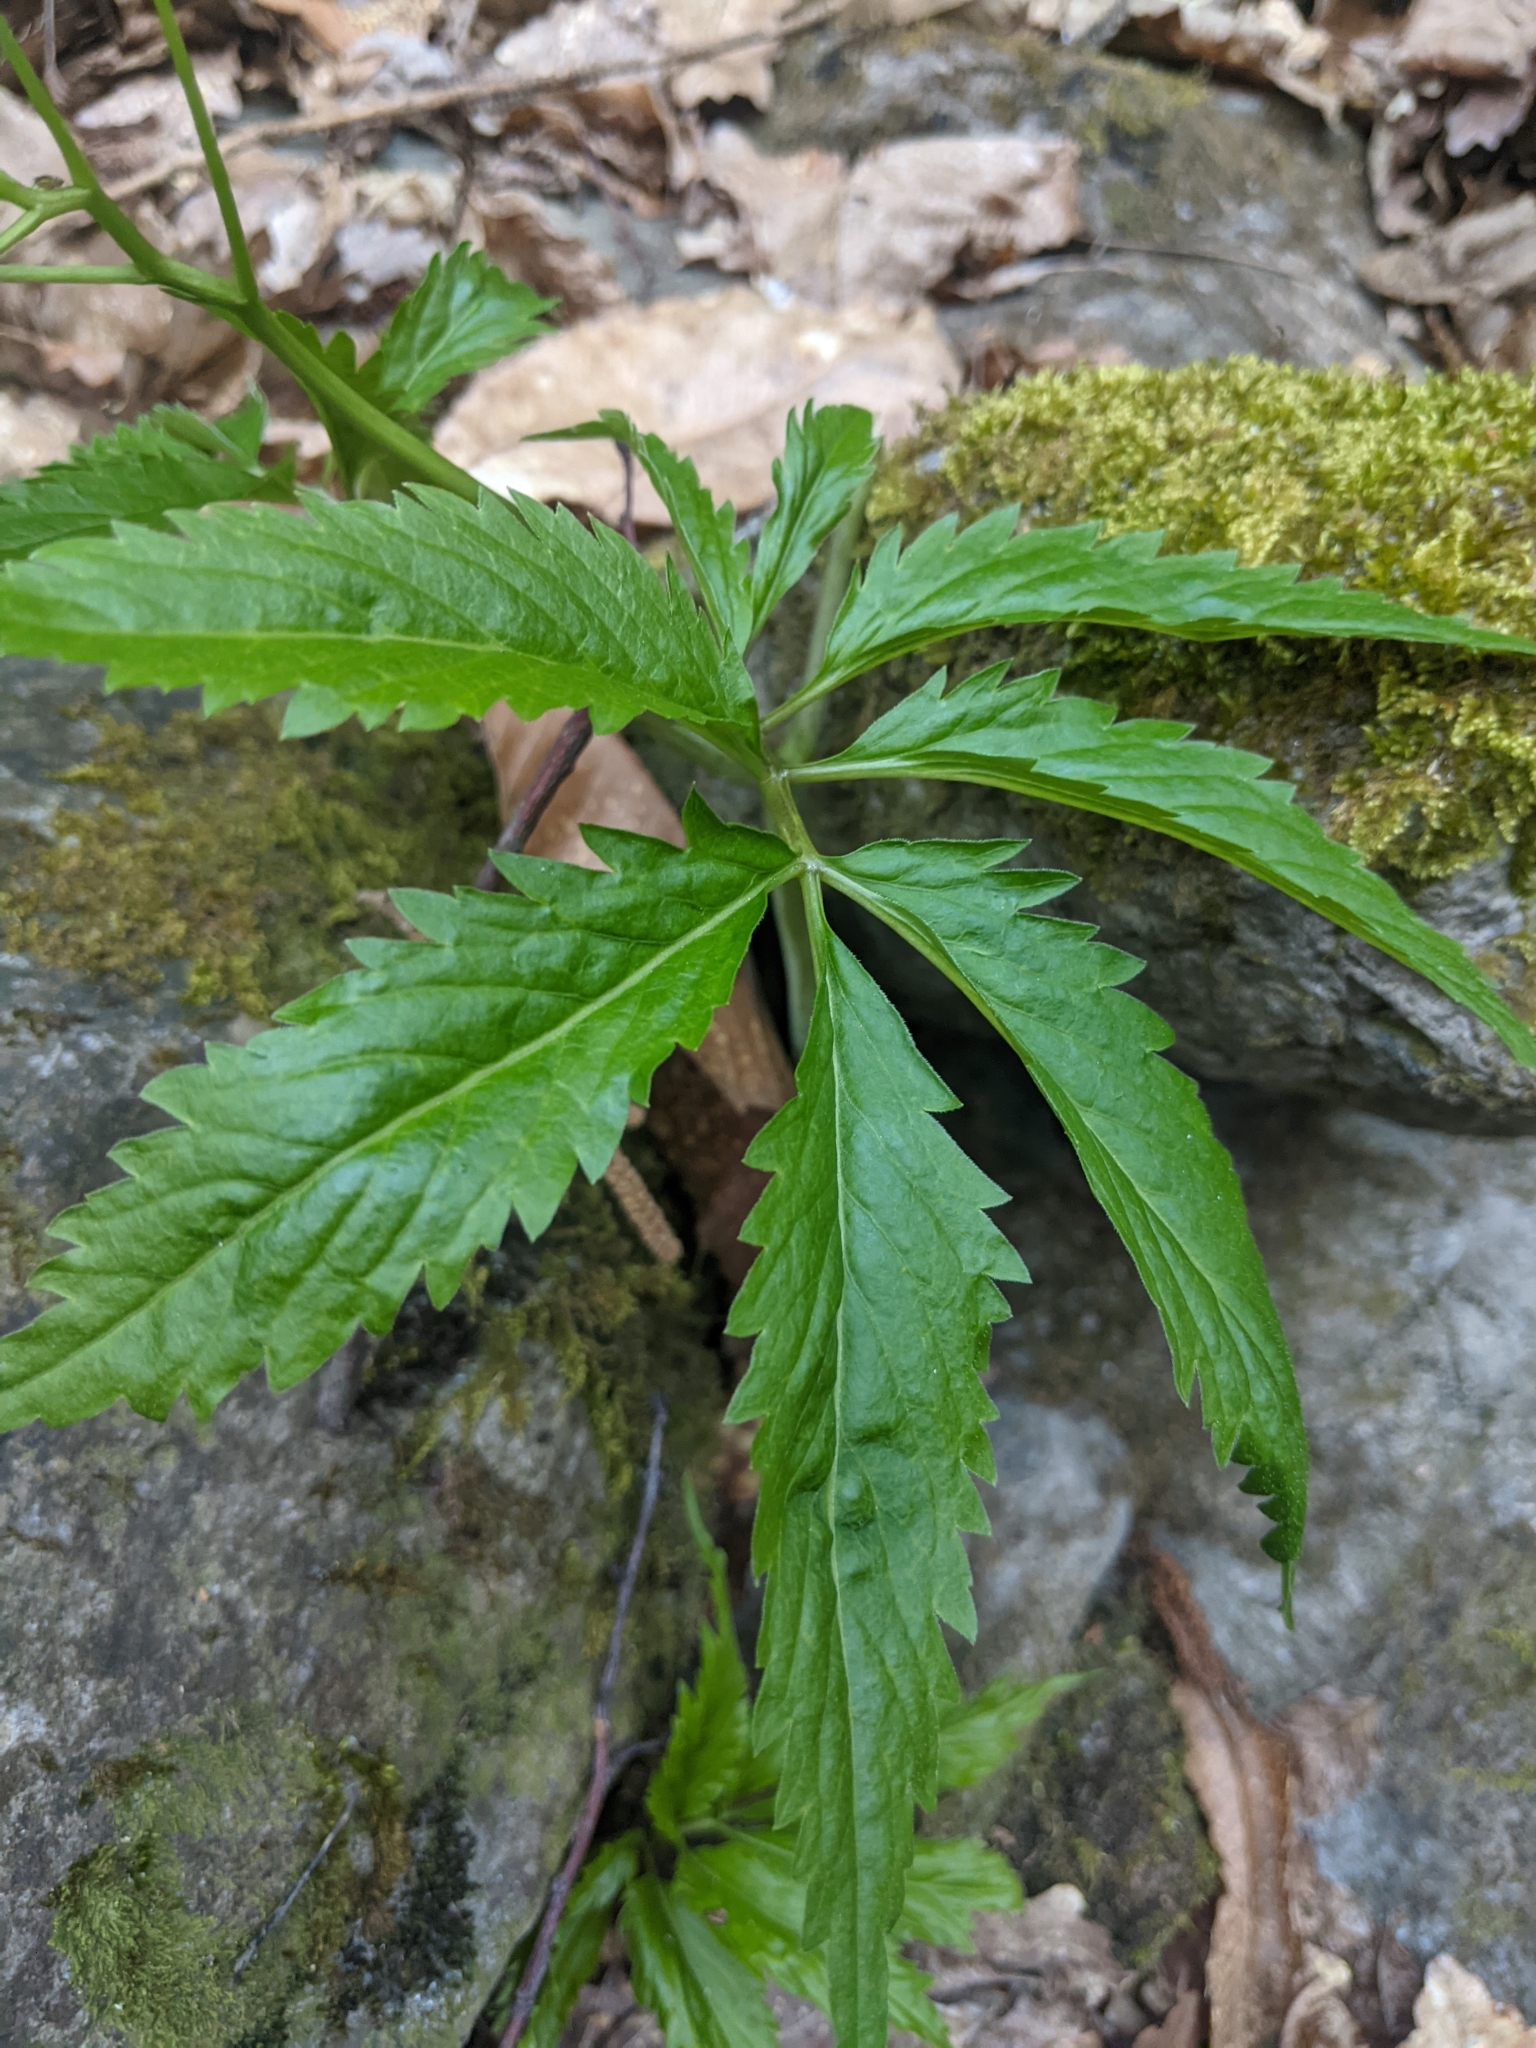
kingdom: Plantae
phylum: Tracheophyta
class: Magnoliopsida
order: Brassicales
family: Brassicaceae
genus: Cardamine
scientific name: Cardamine kitaibelii
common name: Kitaibel's bitter-cress
